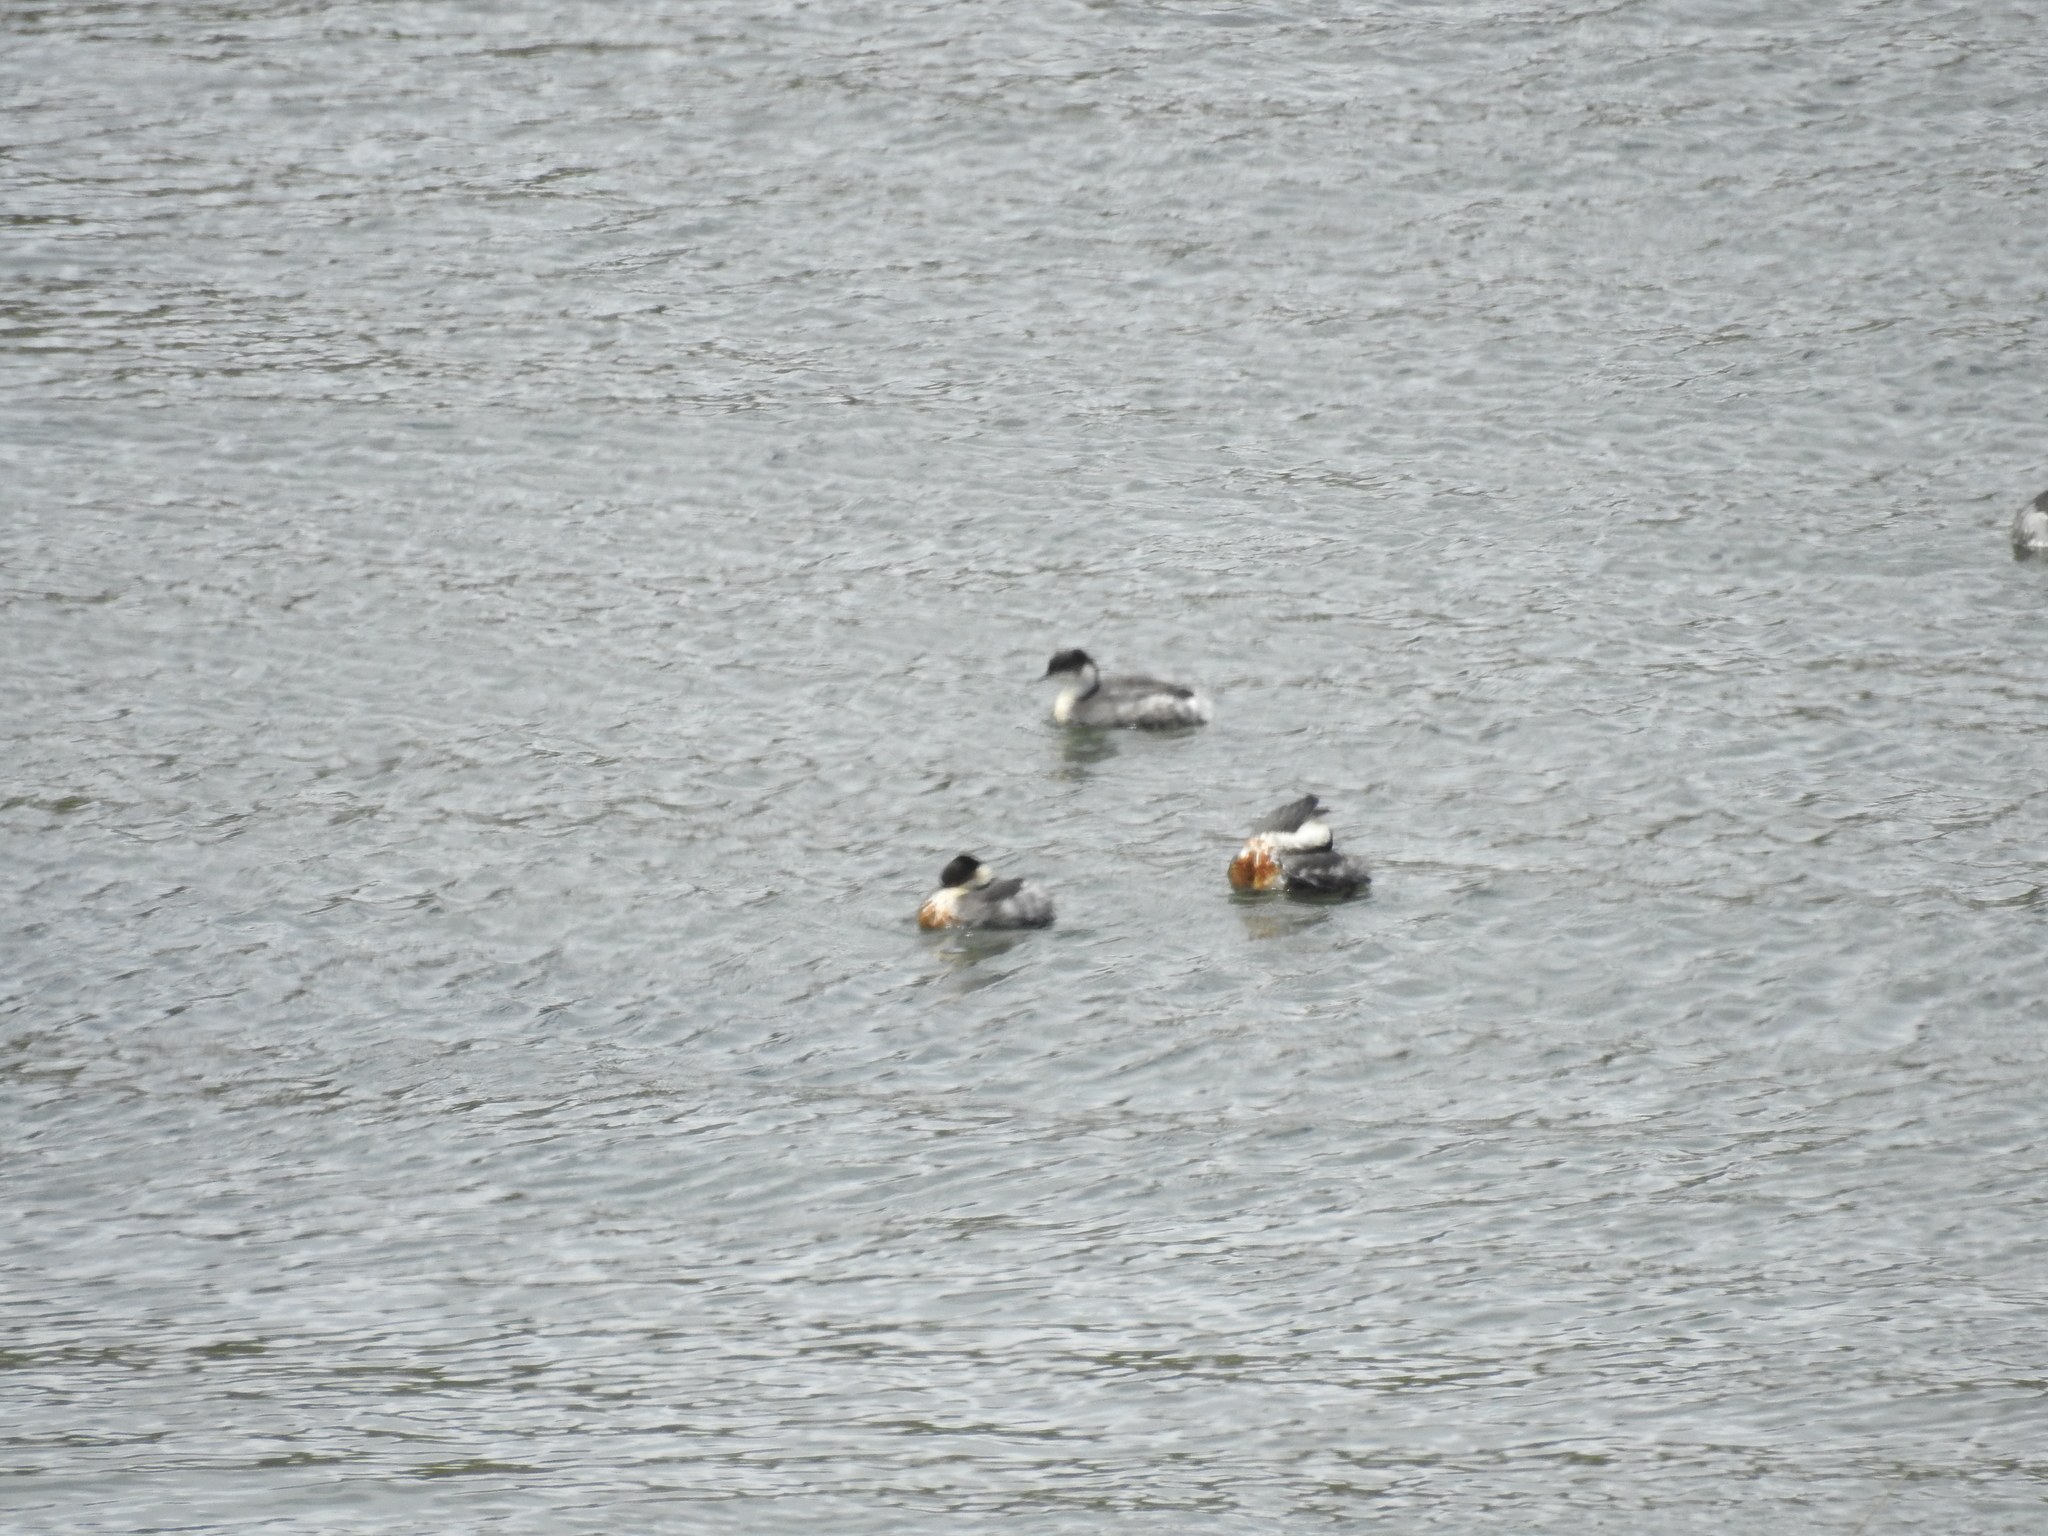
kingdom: Animalia
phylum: Chordata
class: Aves
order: Podicipediformes
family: Podicipedidae
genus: Podiceps
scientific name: Podiceps occipitalis
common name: Silvery grebe
